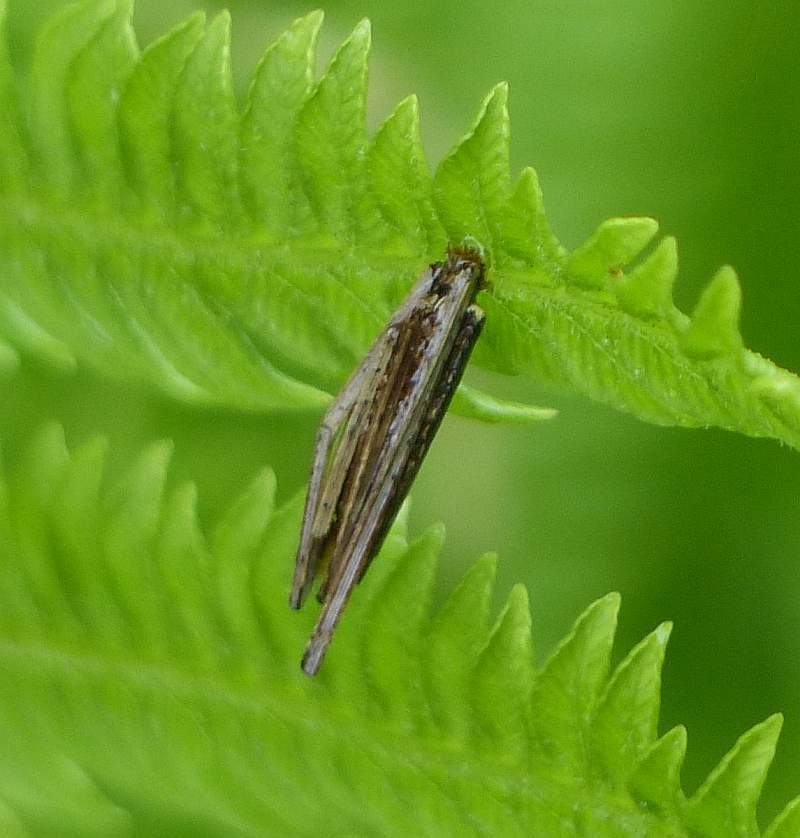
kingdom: Animalia
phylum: Arthropoda
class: Insecta
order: Lepidoptera
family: Psychidae
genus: Psyche
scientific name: Psyche casta
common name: Common sweep
